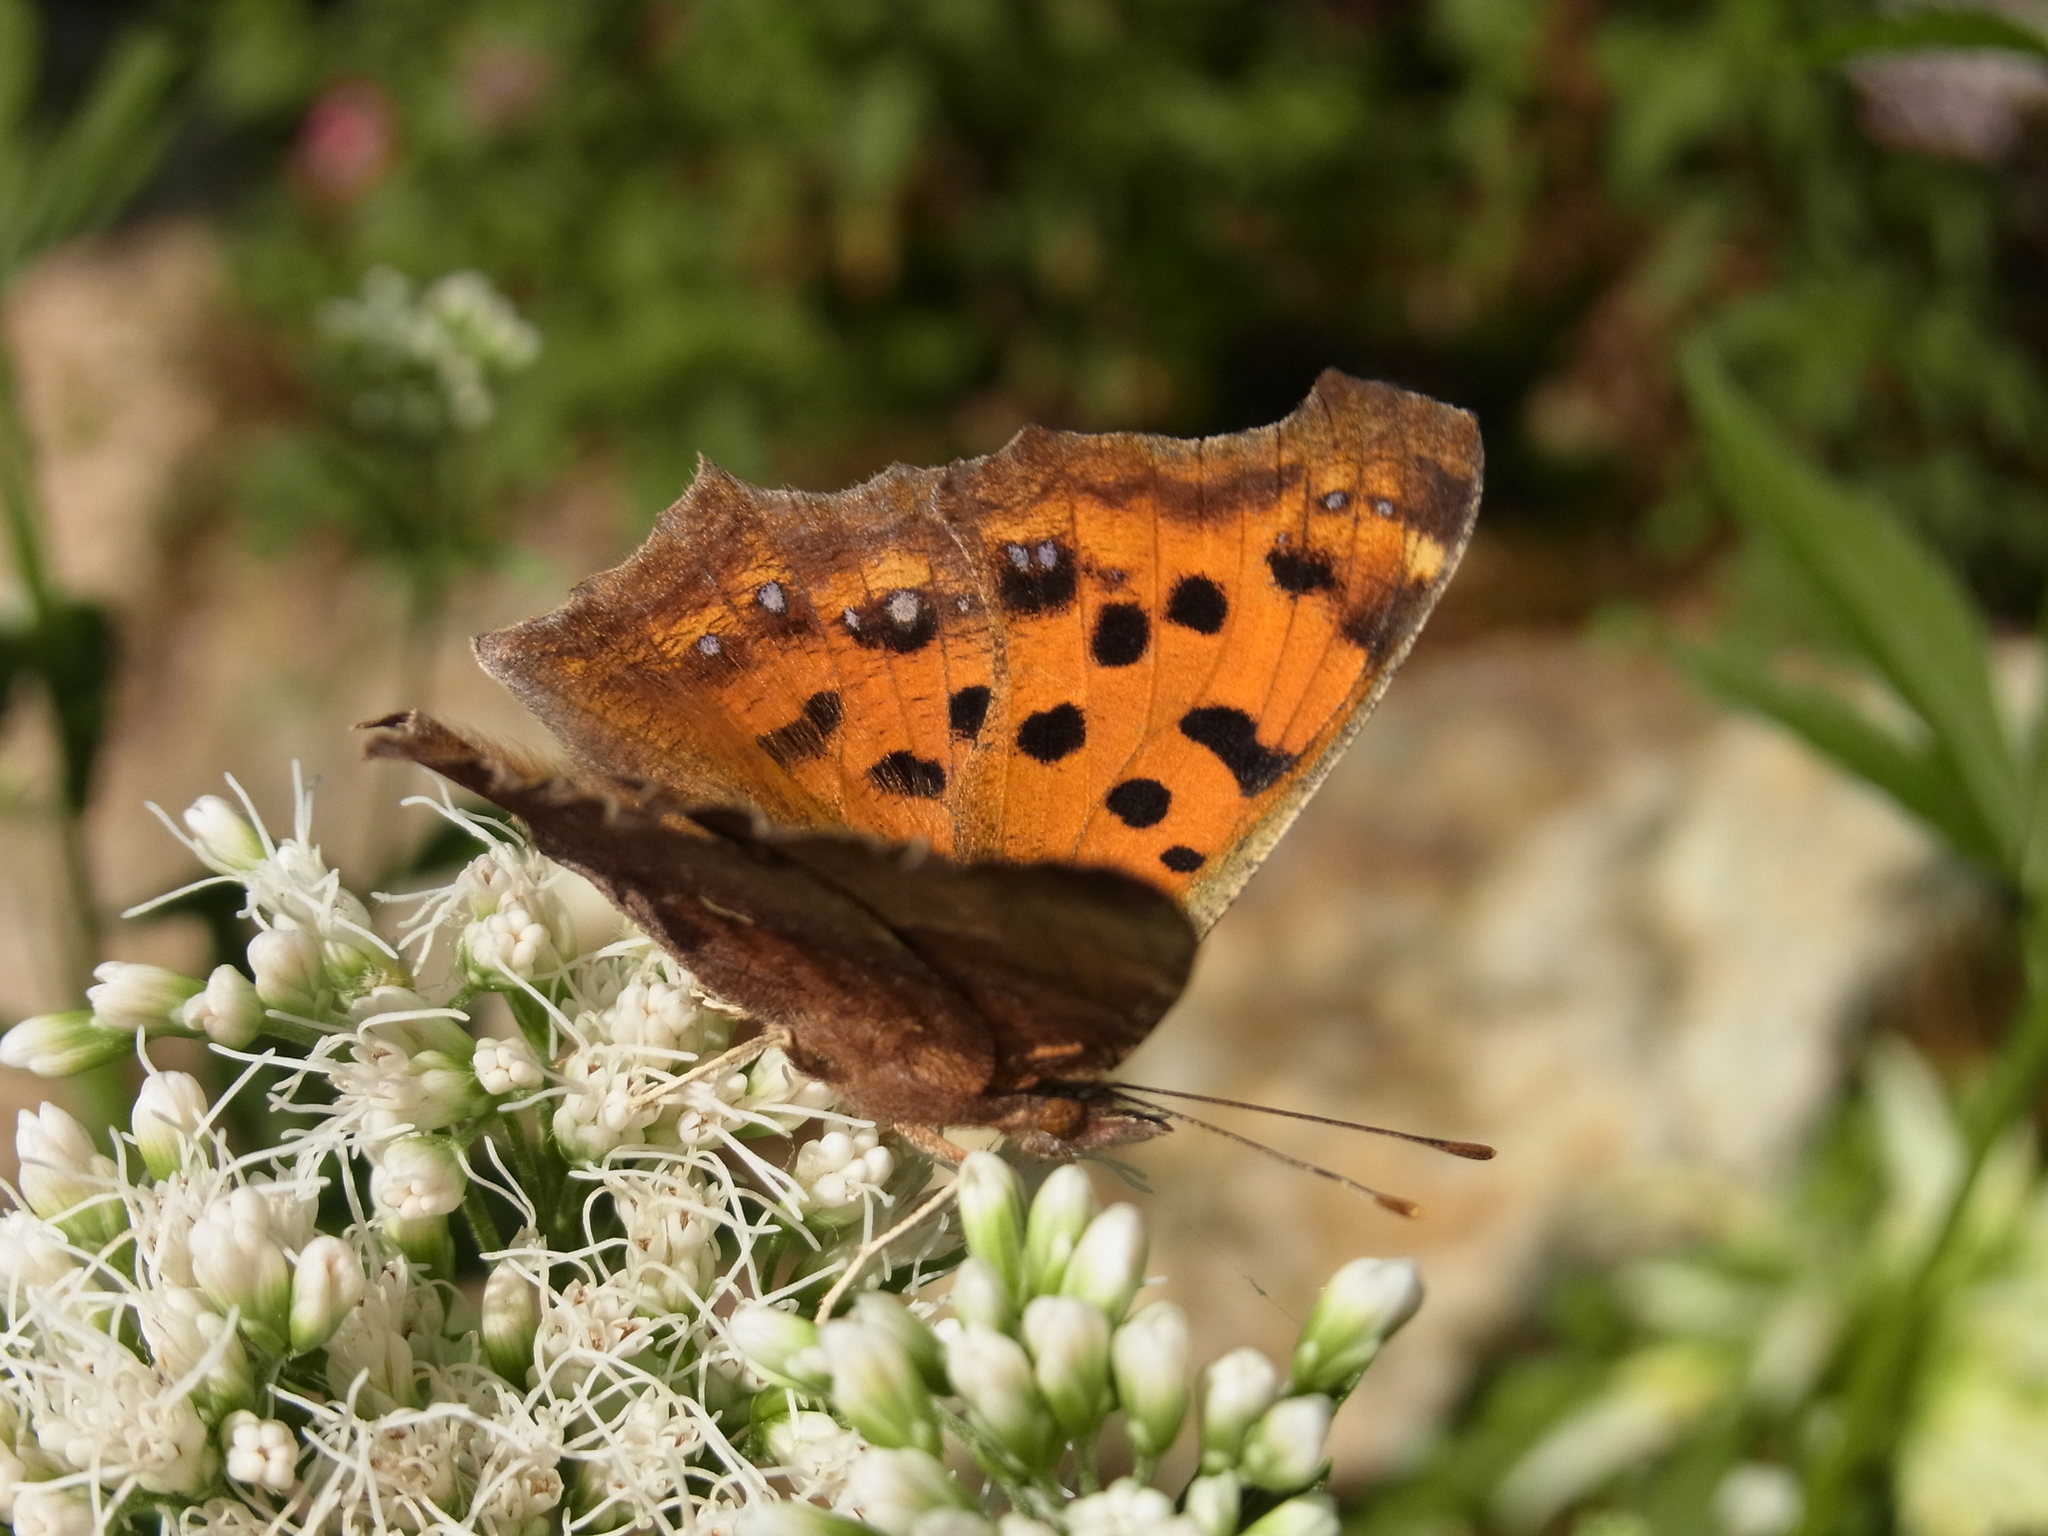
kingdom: Animalia
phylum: Arthropoda
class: Insecta
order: Lepidoptera
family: Nymphalidae
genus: Polygonia
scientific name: Polygonia c-aureum
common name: Asian comma
